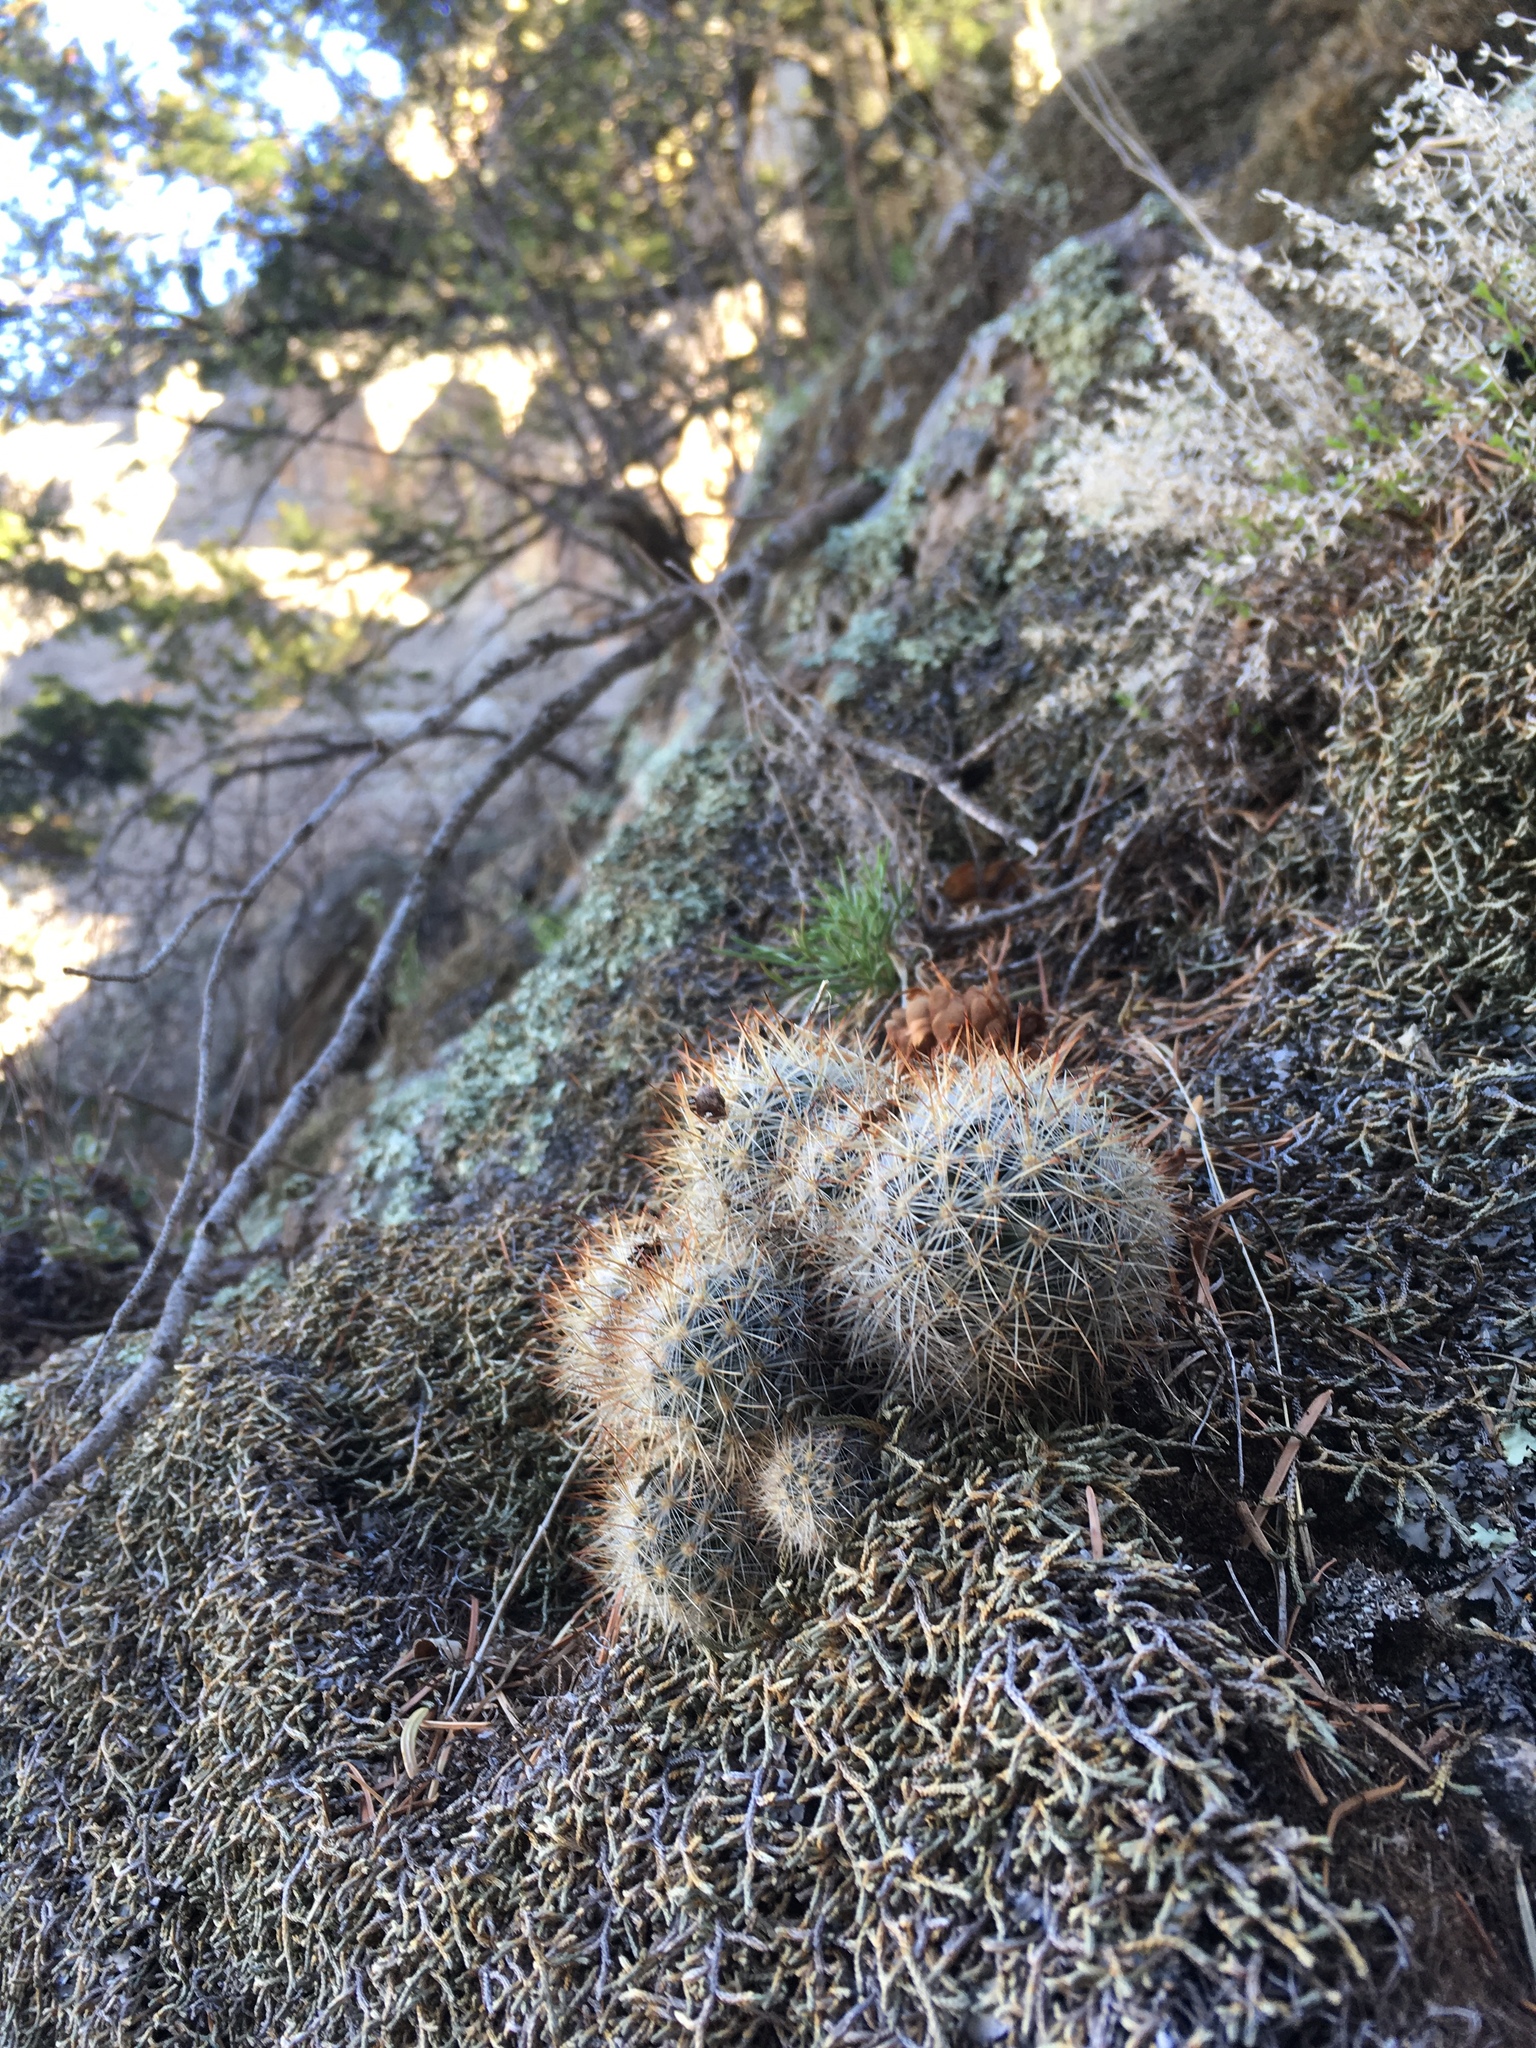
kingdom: Plantae
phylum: Tracheophyta
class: Magnoliopsida
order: Caryophyllales
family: Cactaceae
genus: Pelecyphora
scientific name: Pelecyphora sneedii
